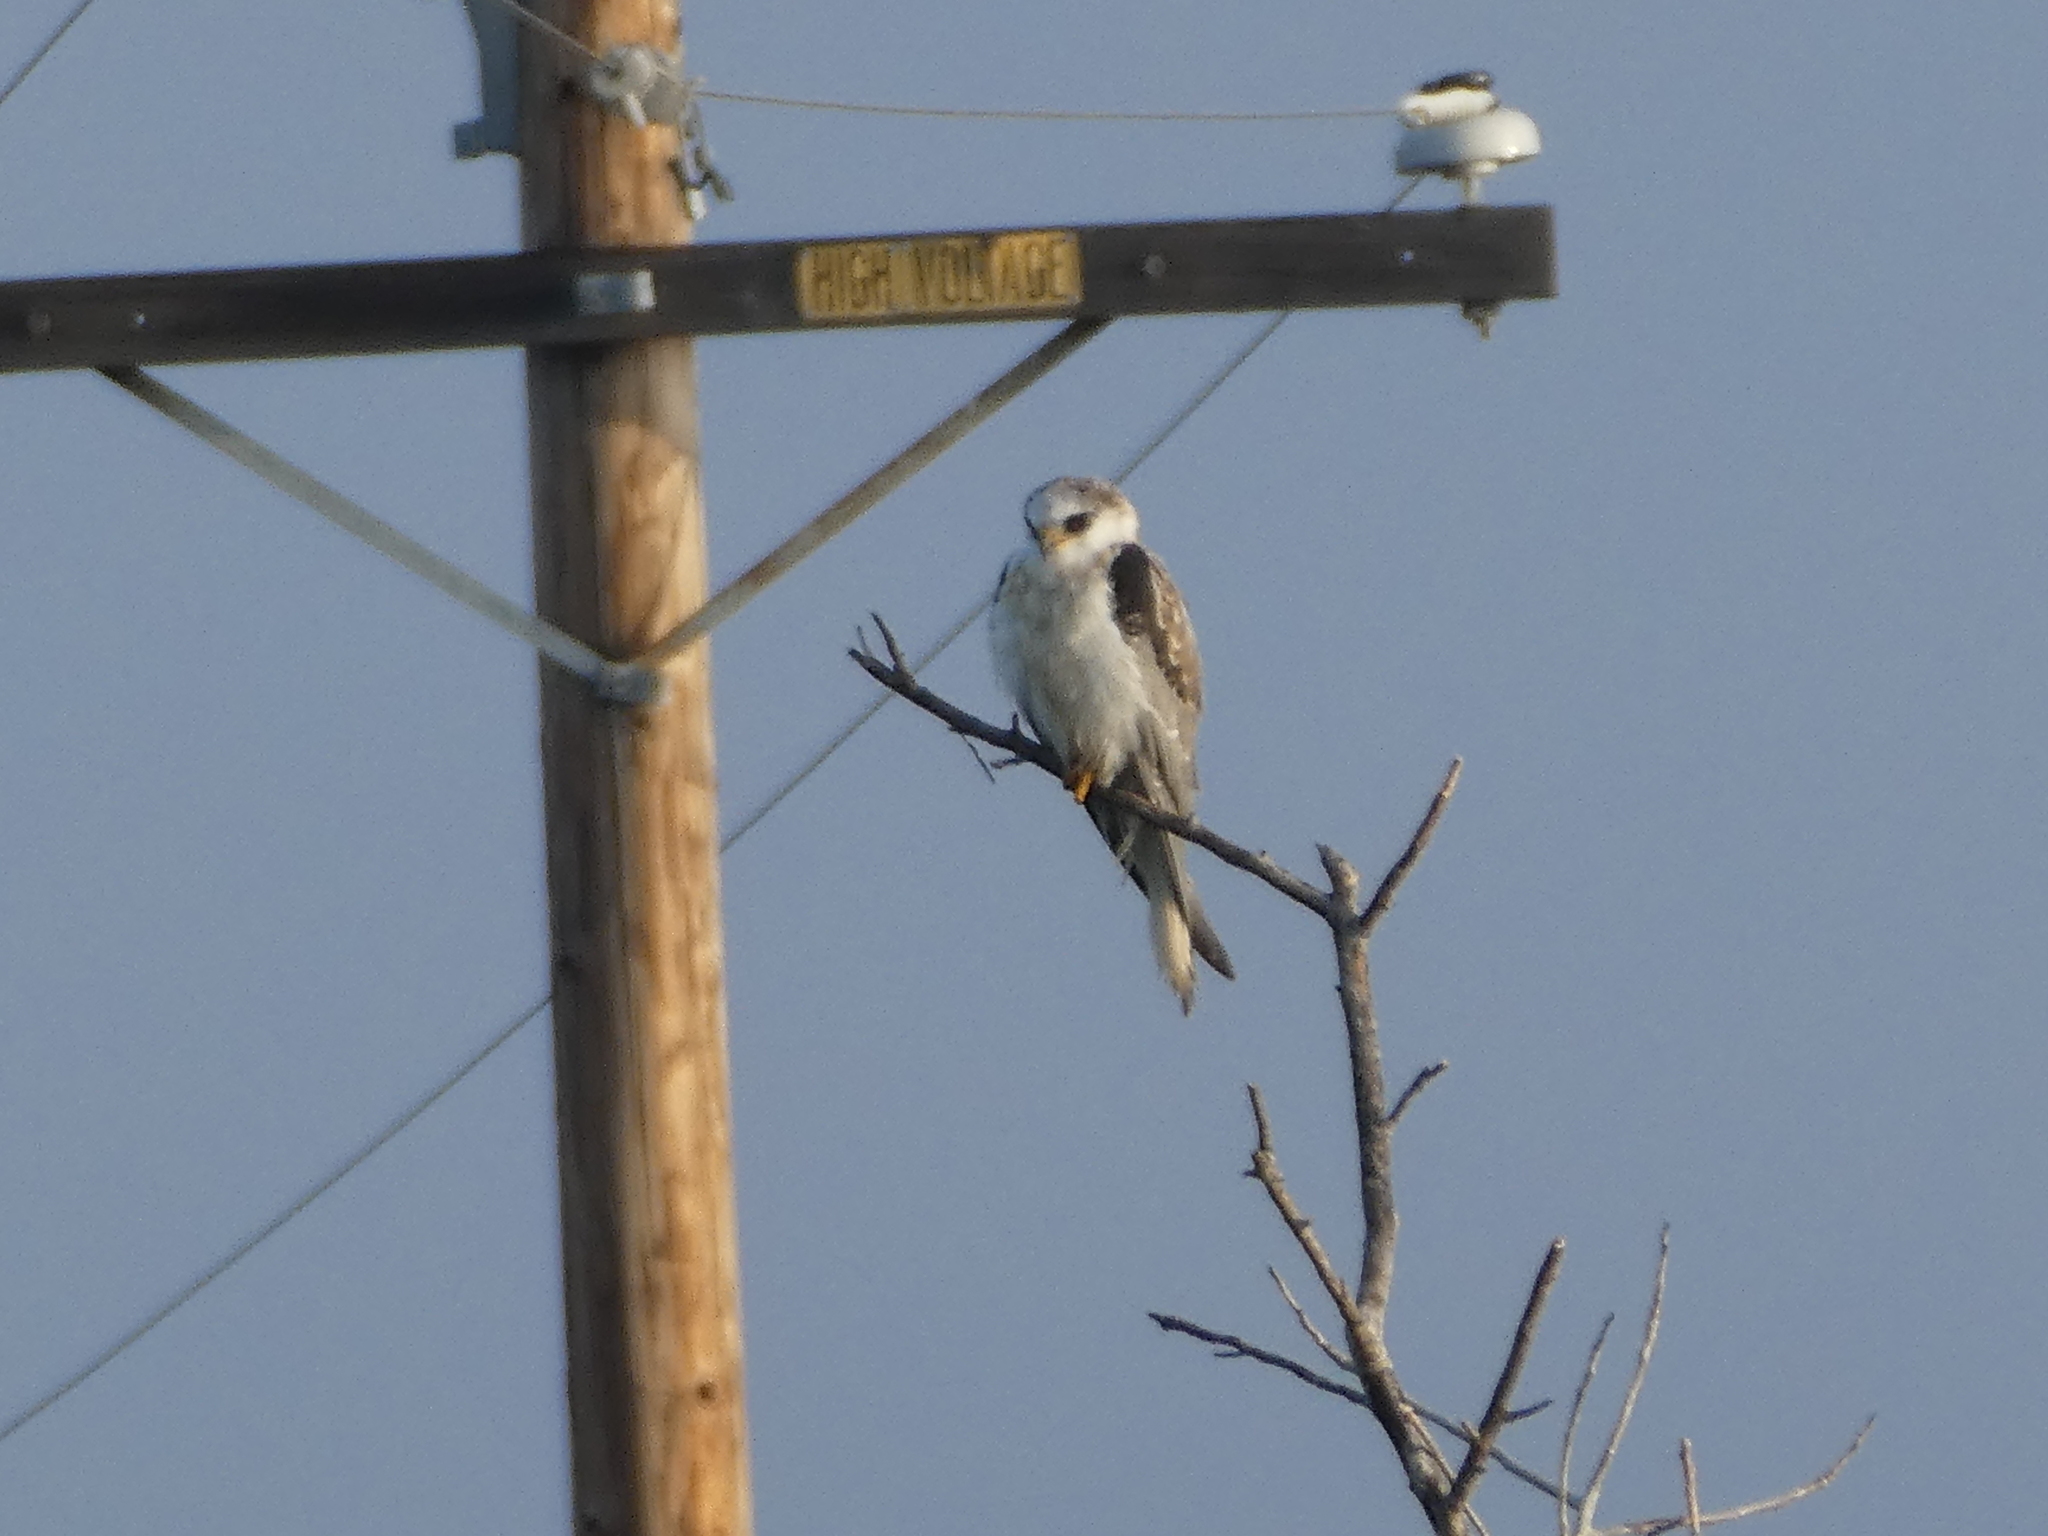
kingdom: Animalia
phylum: Chordata
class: Aves
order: Accipitriformes
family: Accipitridae
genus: Elanus
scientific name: Elanus leucurus
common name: White-tailed kite
